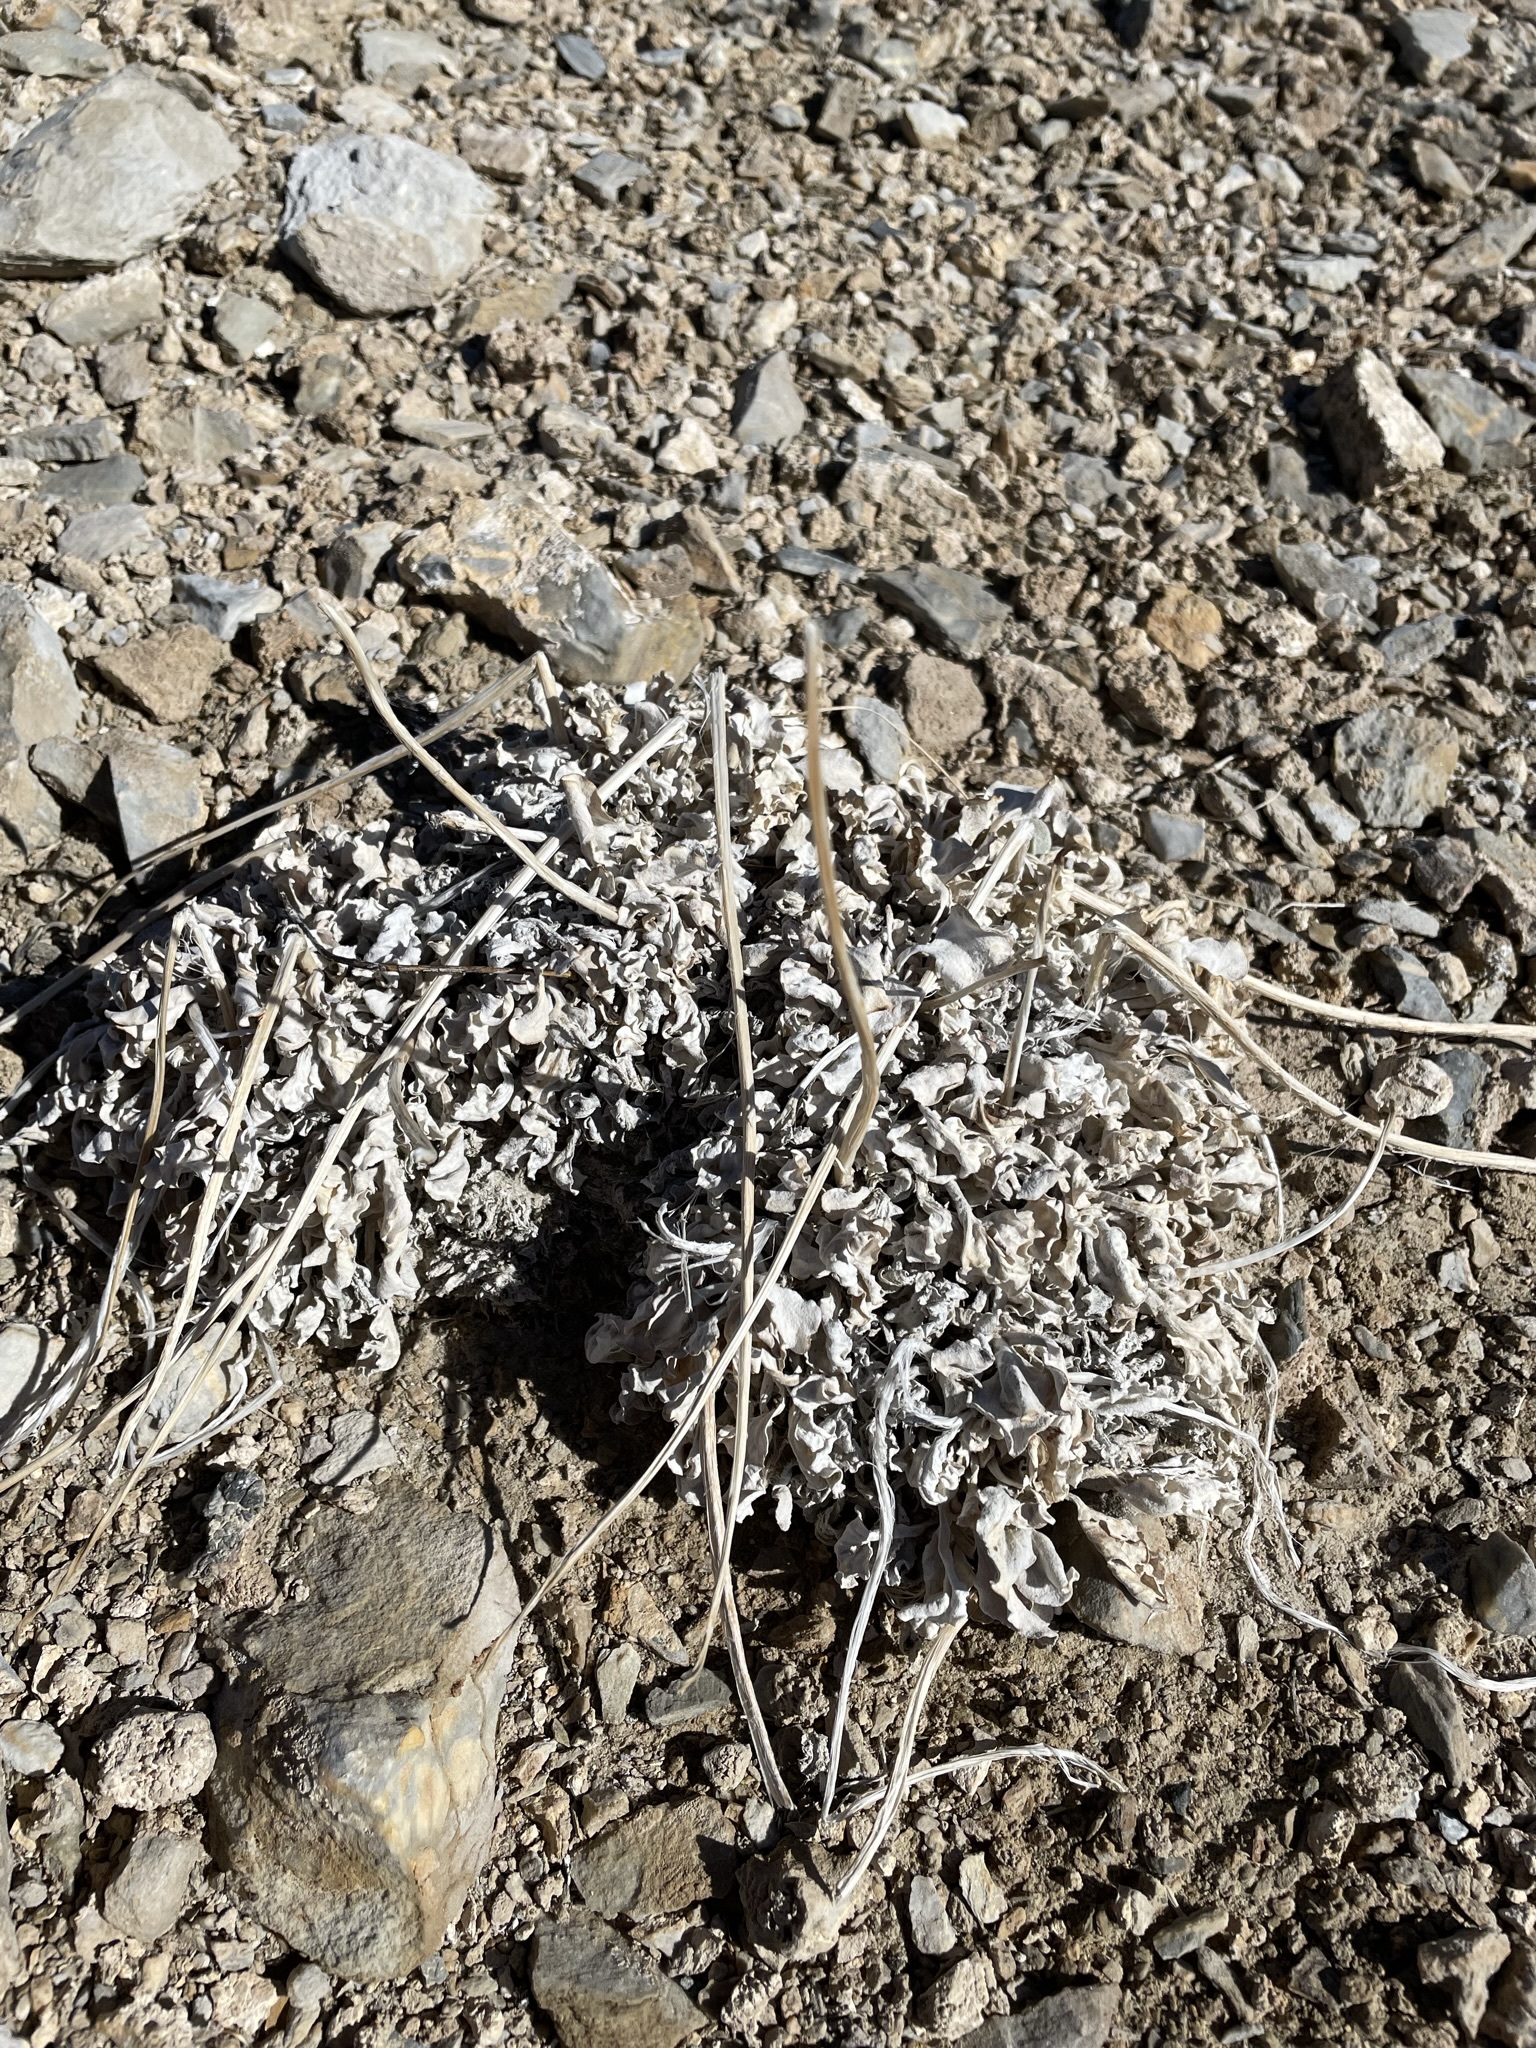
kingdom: Plantae
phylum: Tracheophyta
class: Magnoliopsida
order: Asterales
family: Asteraceae
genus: Enceliopsis
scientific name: Enceliopsis nudicaulis
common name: Naked-stem daisy
